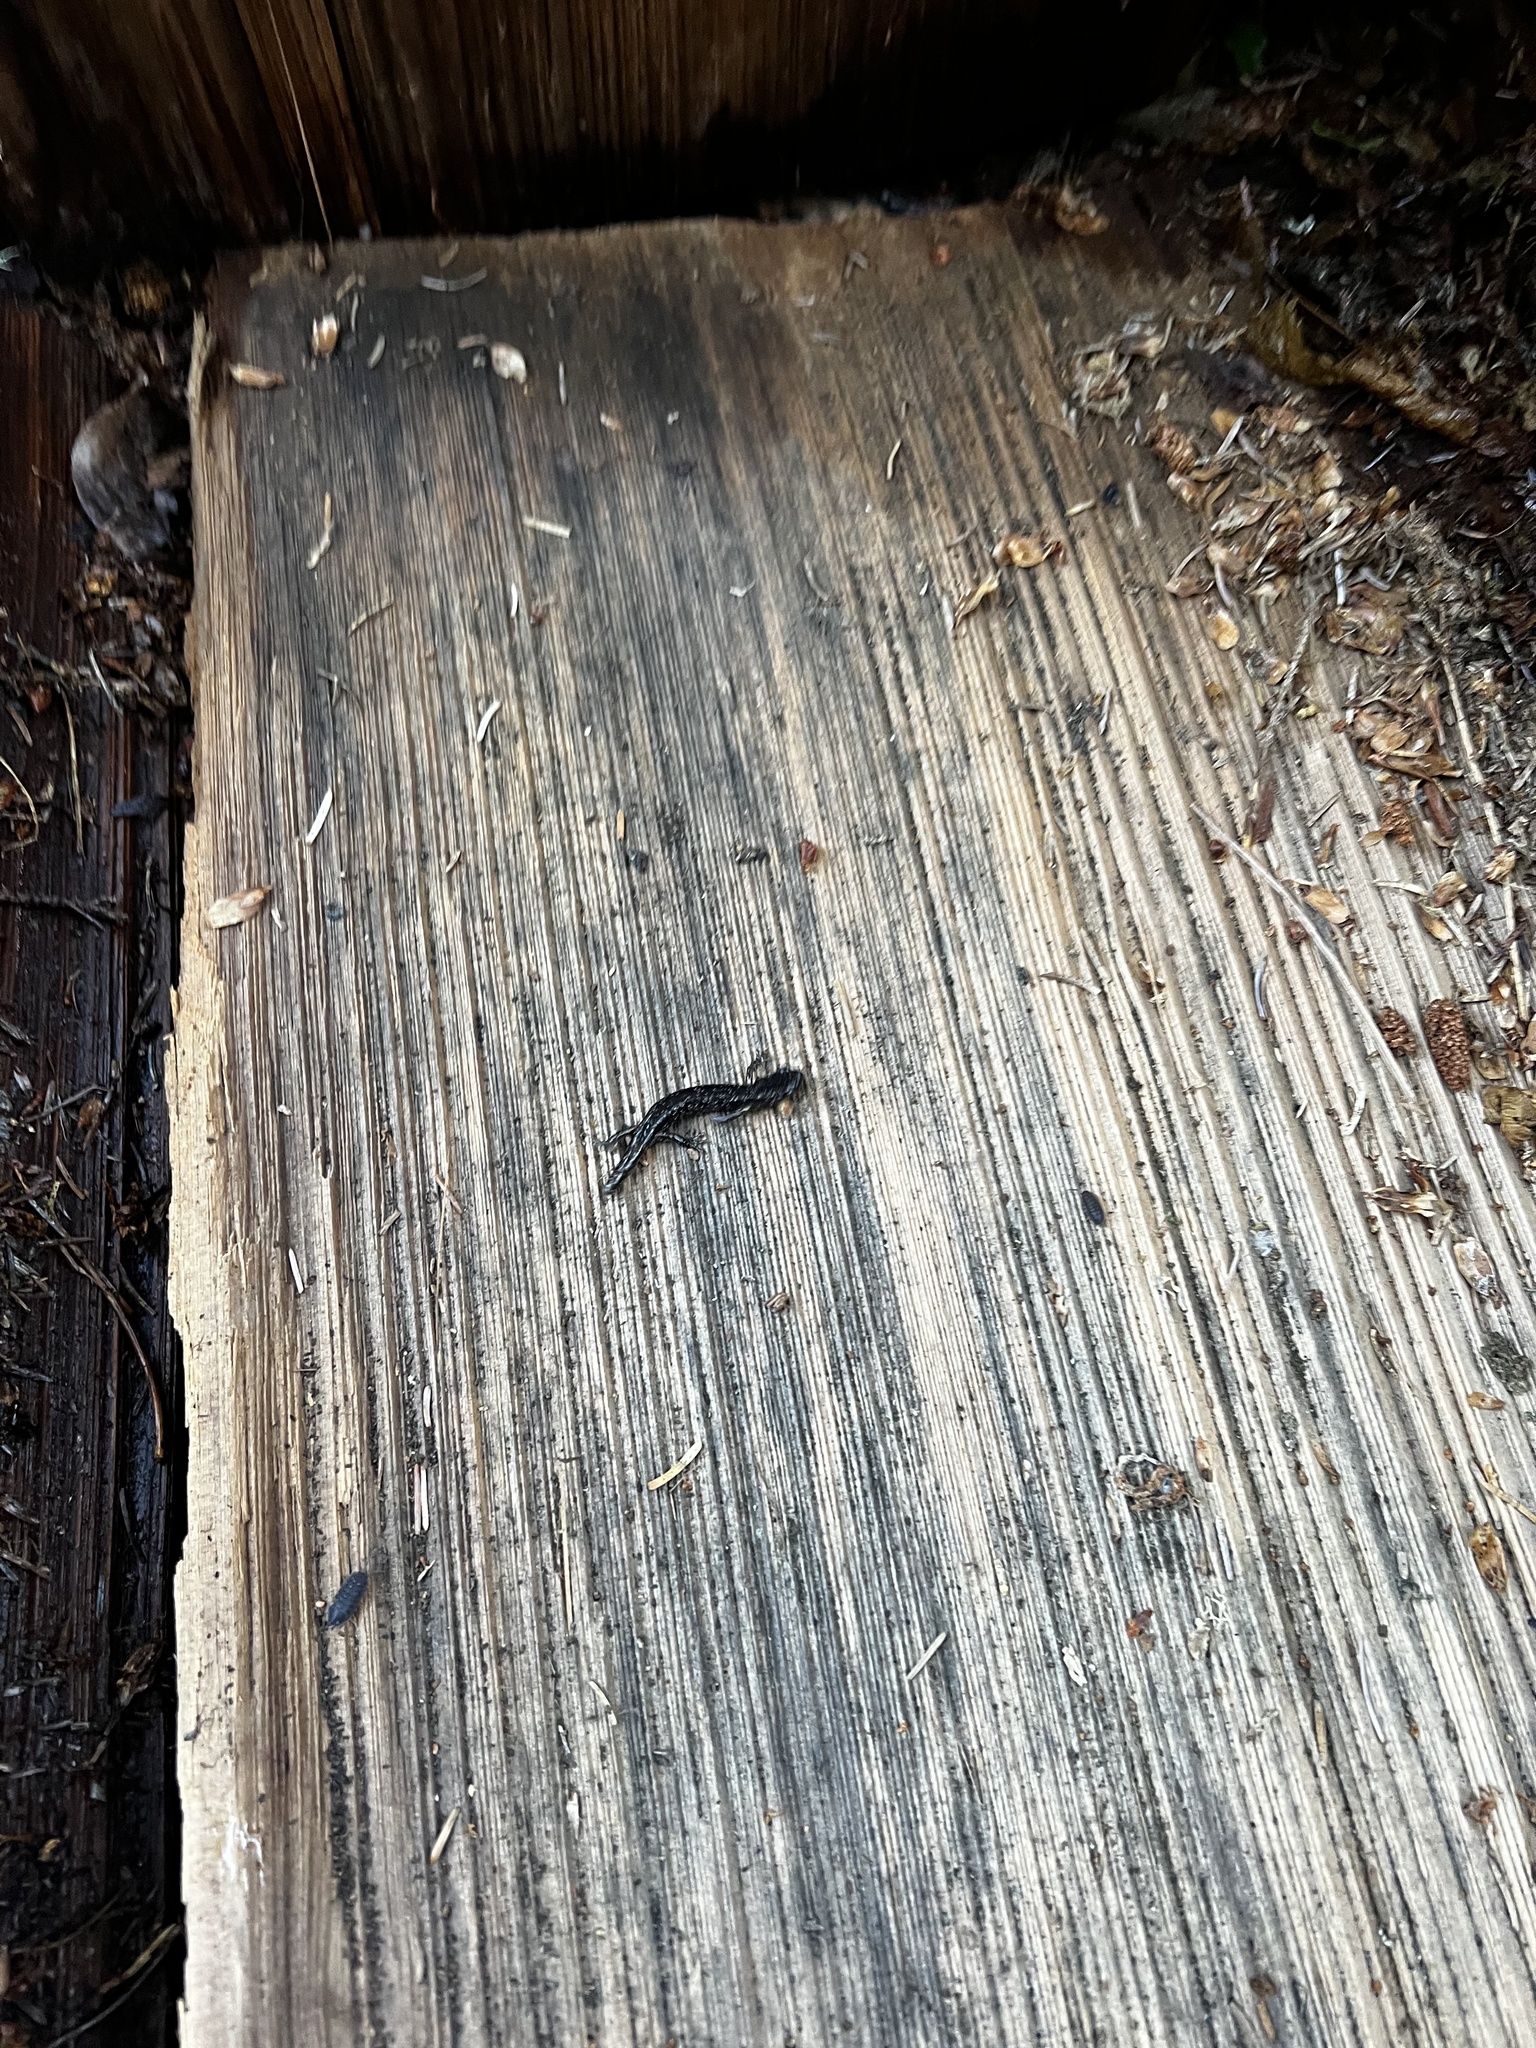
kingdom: Animalia
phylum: Chordata
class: Amphibia
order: Caudata
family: Plethodontidae
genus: Aneides
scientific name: Aneides vagrans
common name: Wandering salamander
